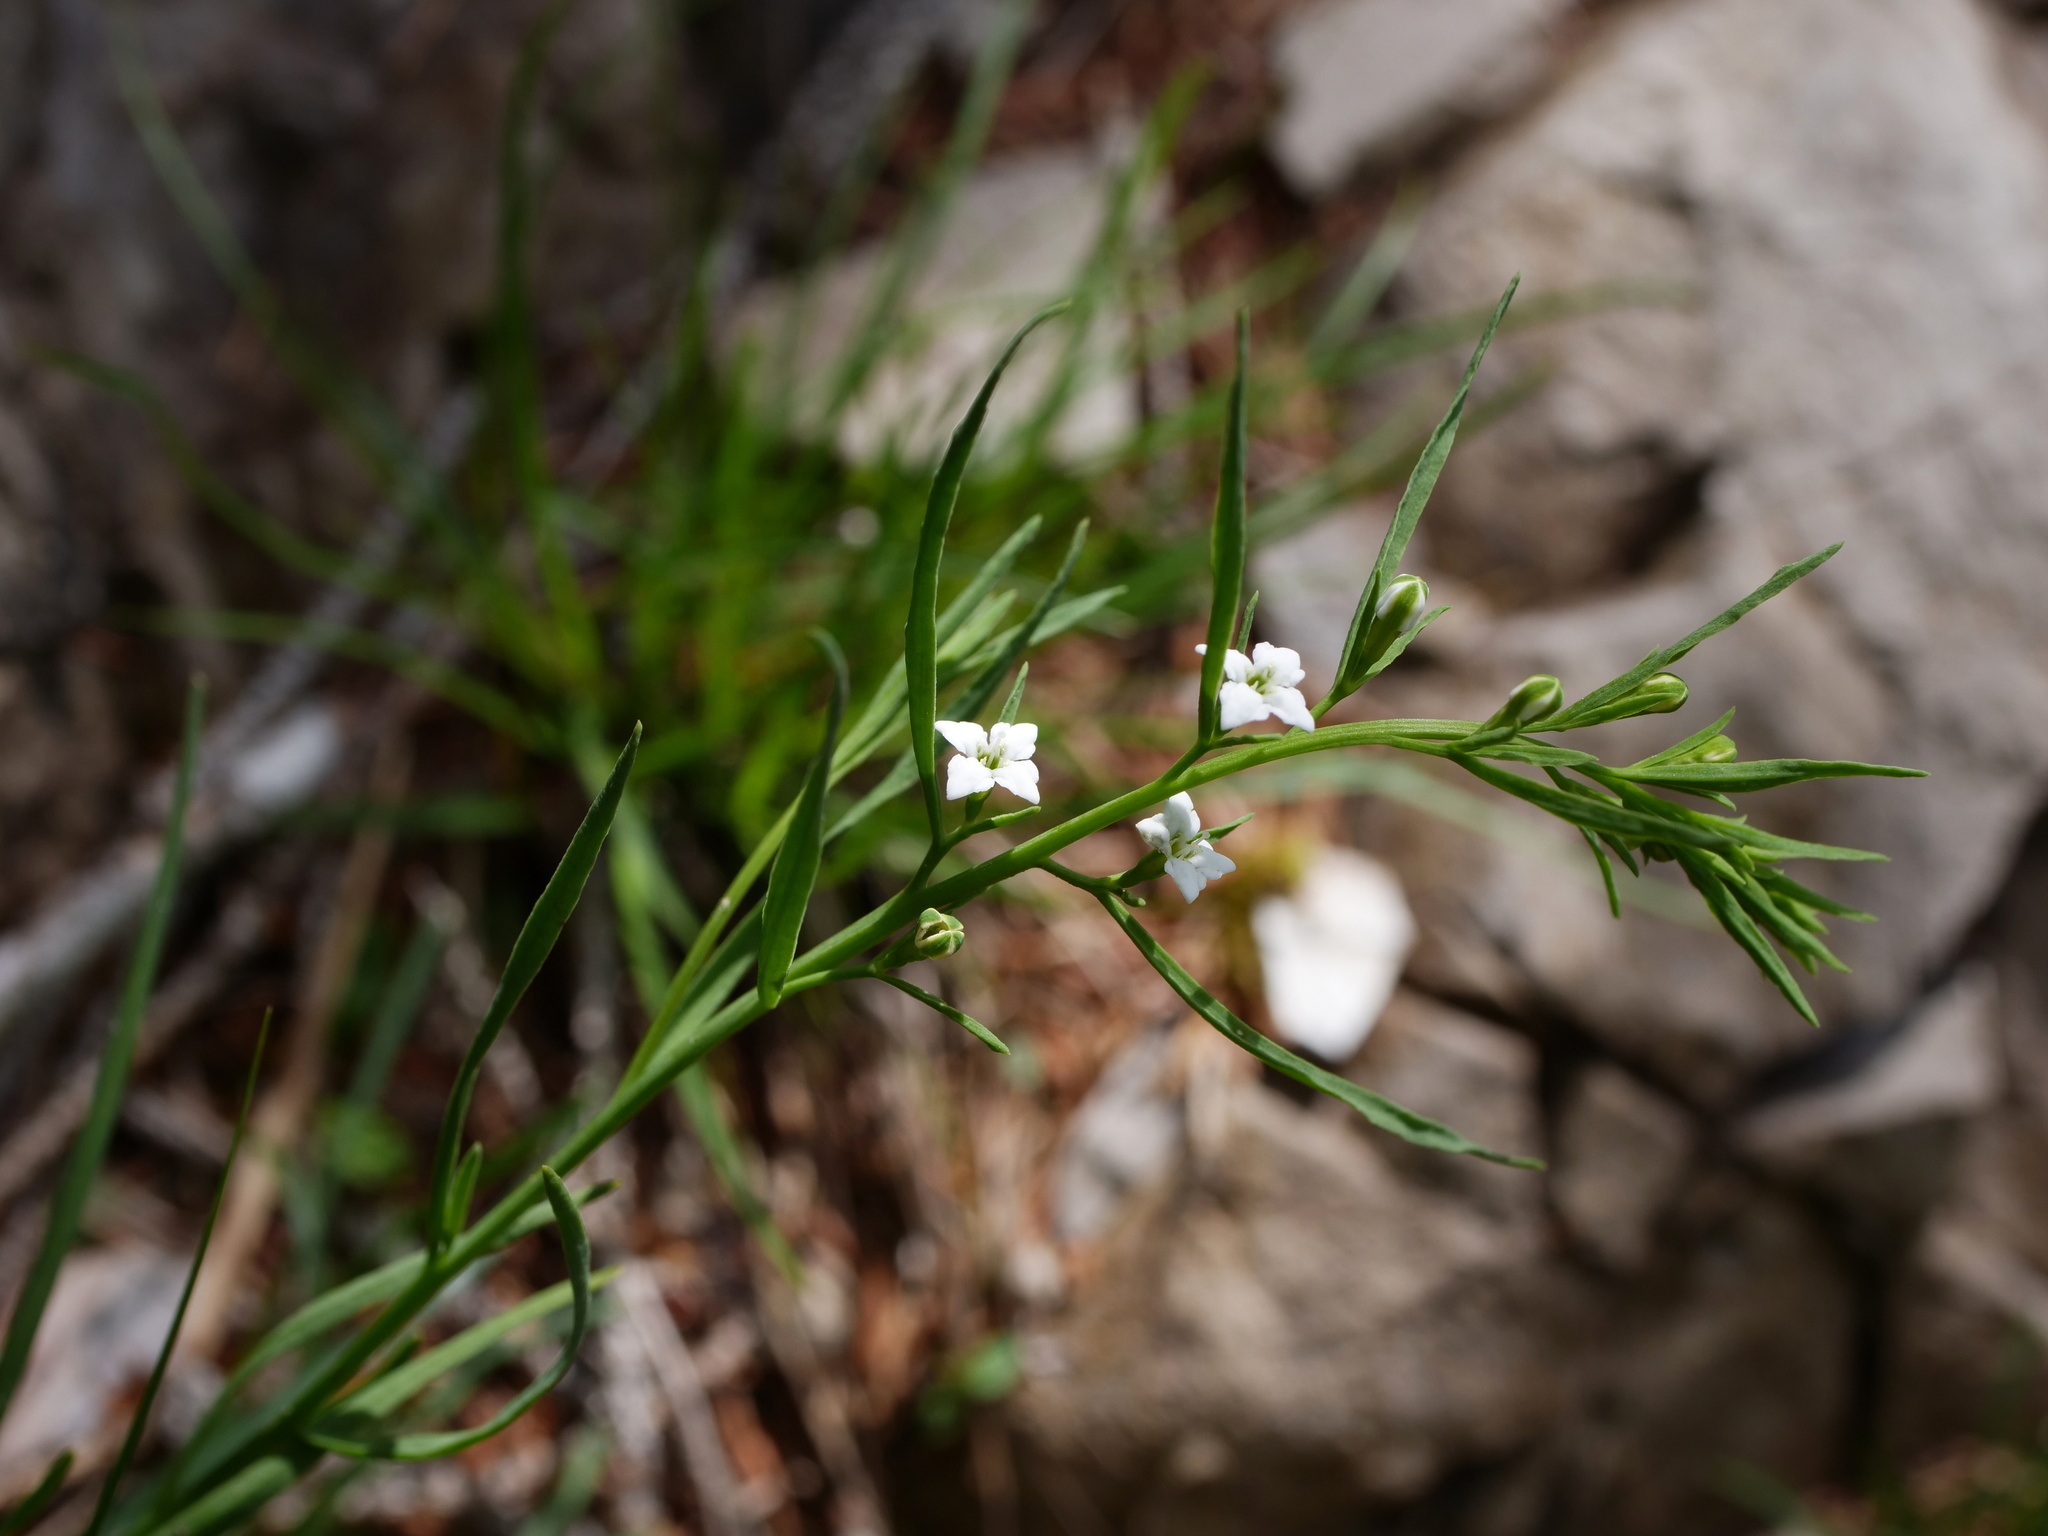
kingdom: Plantae
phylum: Tracheophyta
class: Magnoliopsida
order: Santalales
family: Thesiaceae
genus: Thesium
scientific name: Thesium alpinum
